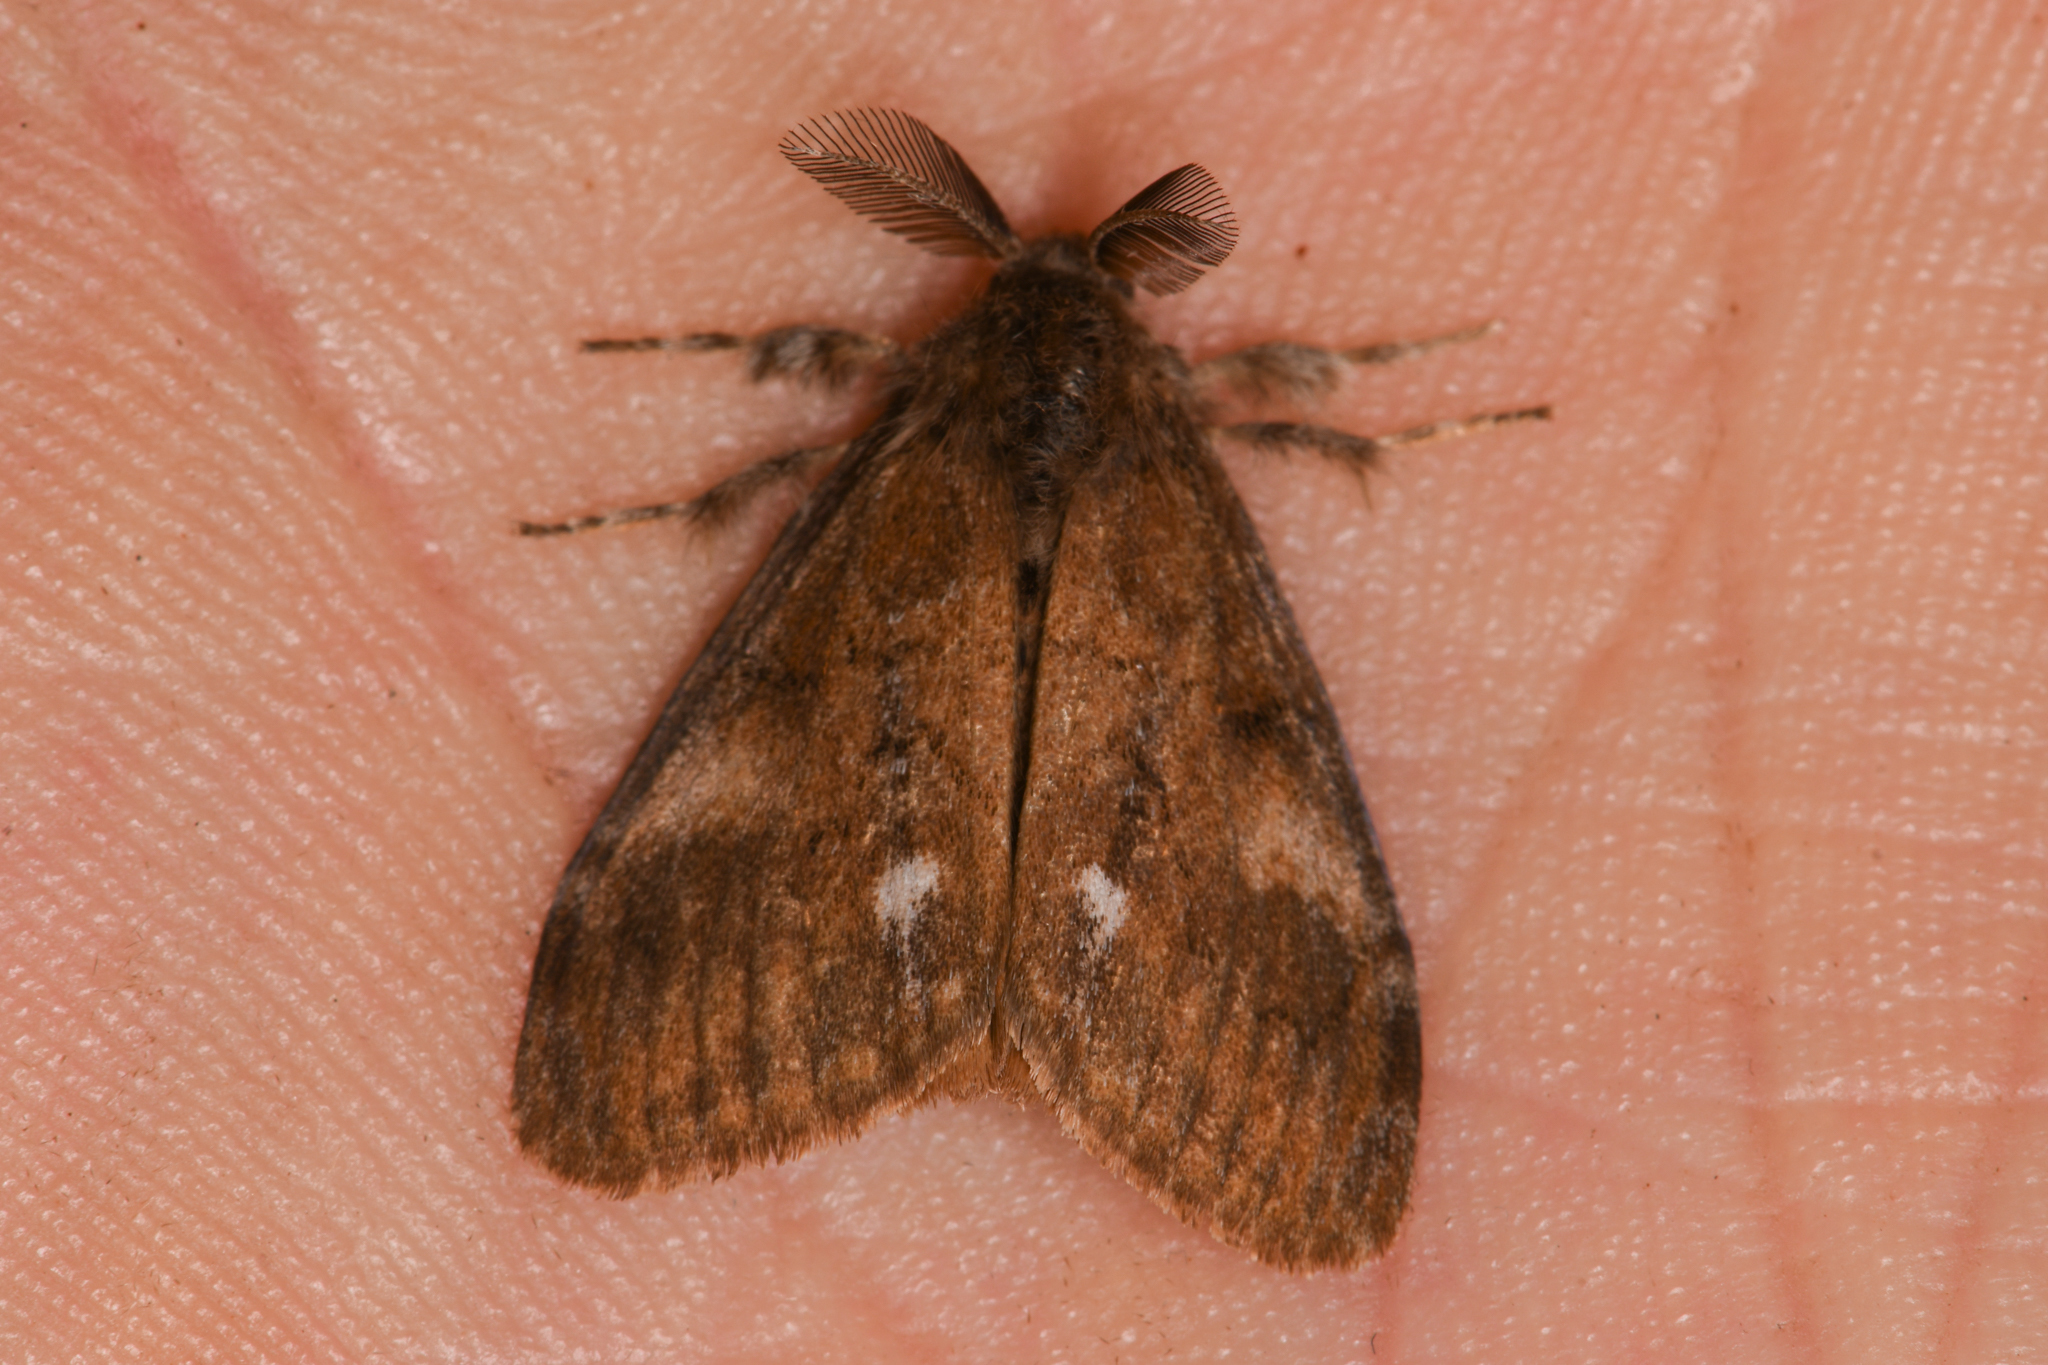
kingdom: Animalia
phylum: Arthropoda
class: Insecta
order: Lepidoptera
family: Erebidae
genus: Orgyia
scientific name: Orgyia antiqua
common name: Vapourer
